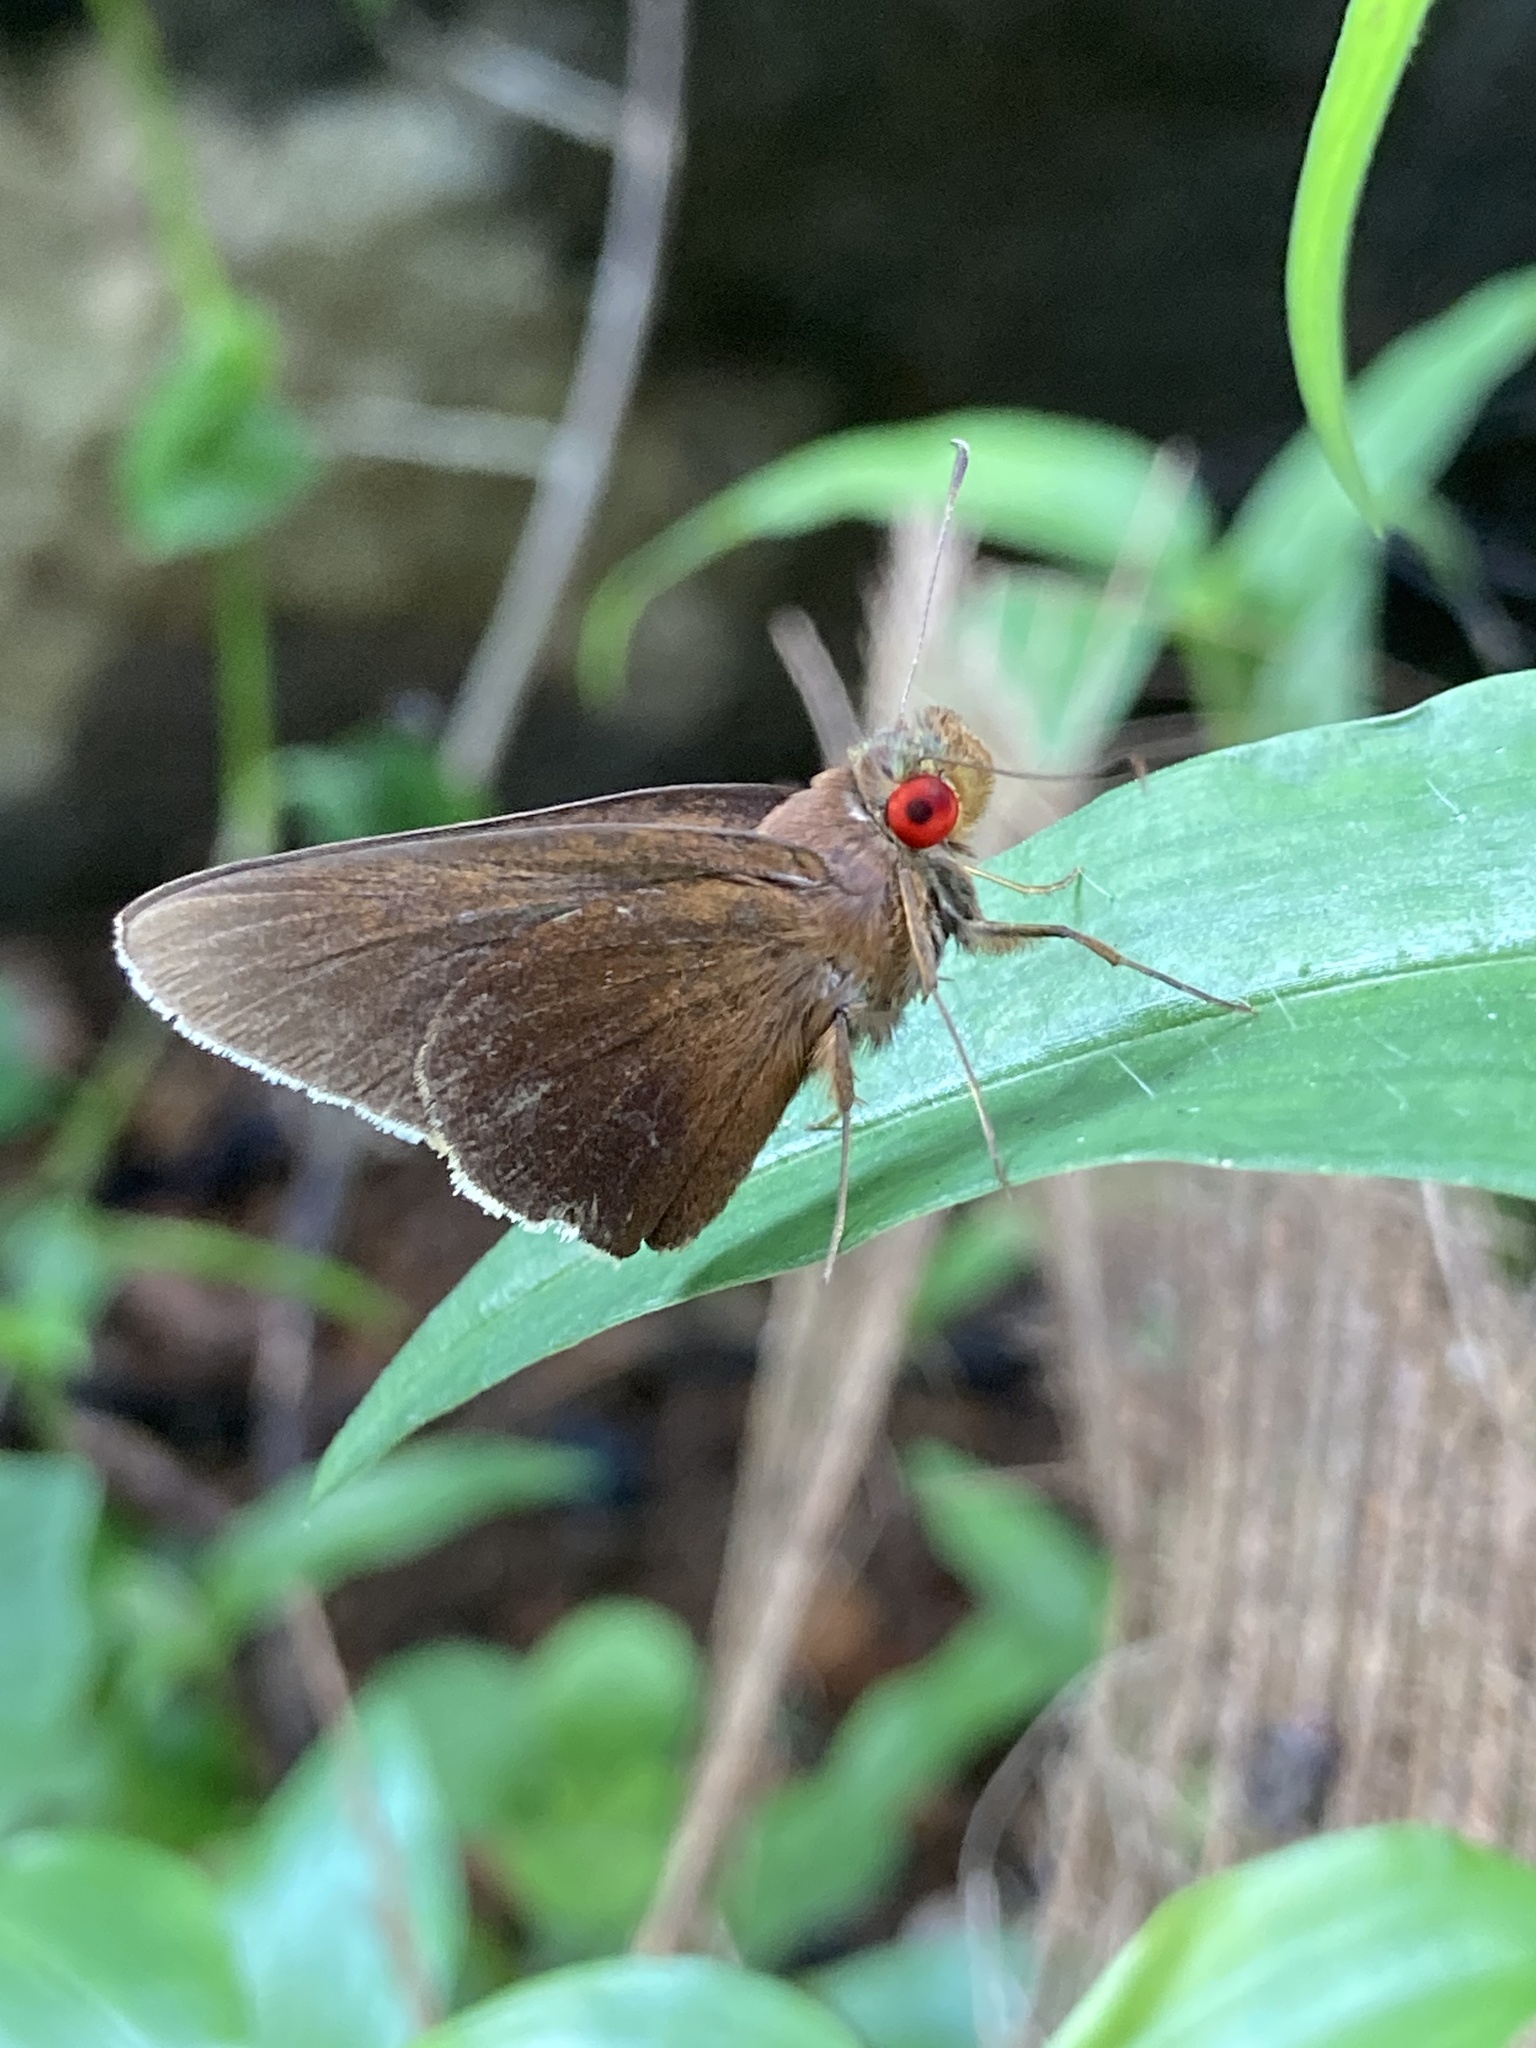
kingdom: Animalia
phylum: Arthropoda
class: Insecta
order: Lepidoptera
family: Hesperiidae
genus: Matapa
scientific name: Matapa aria
